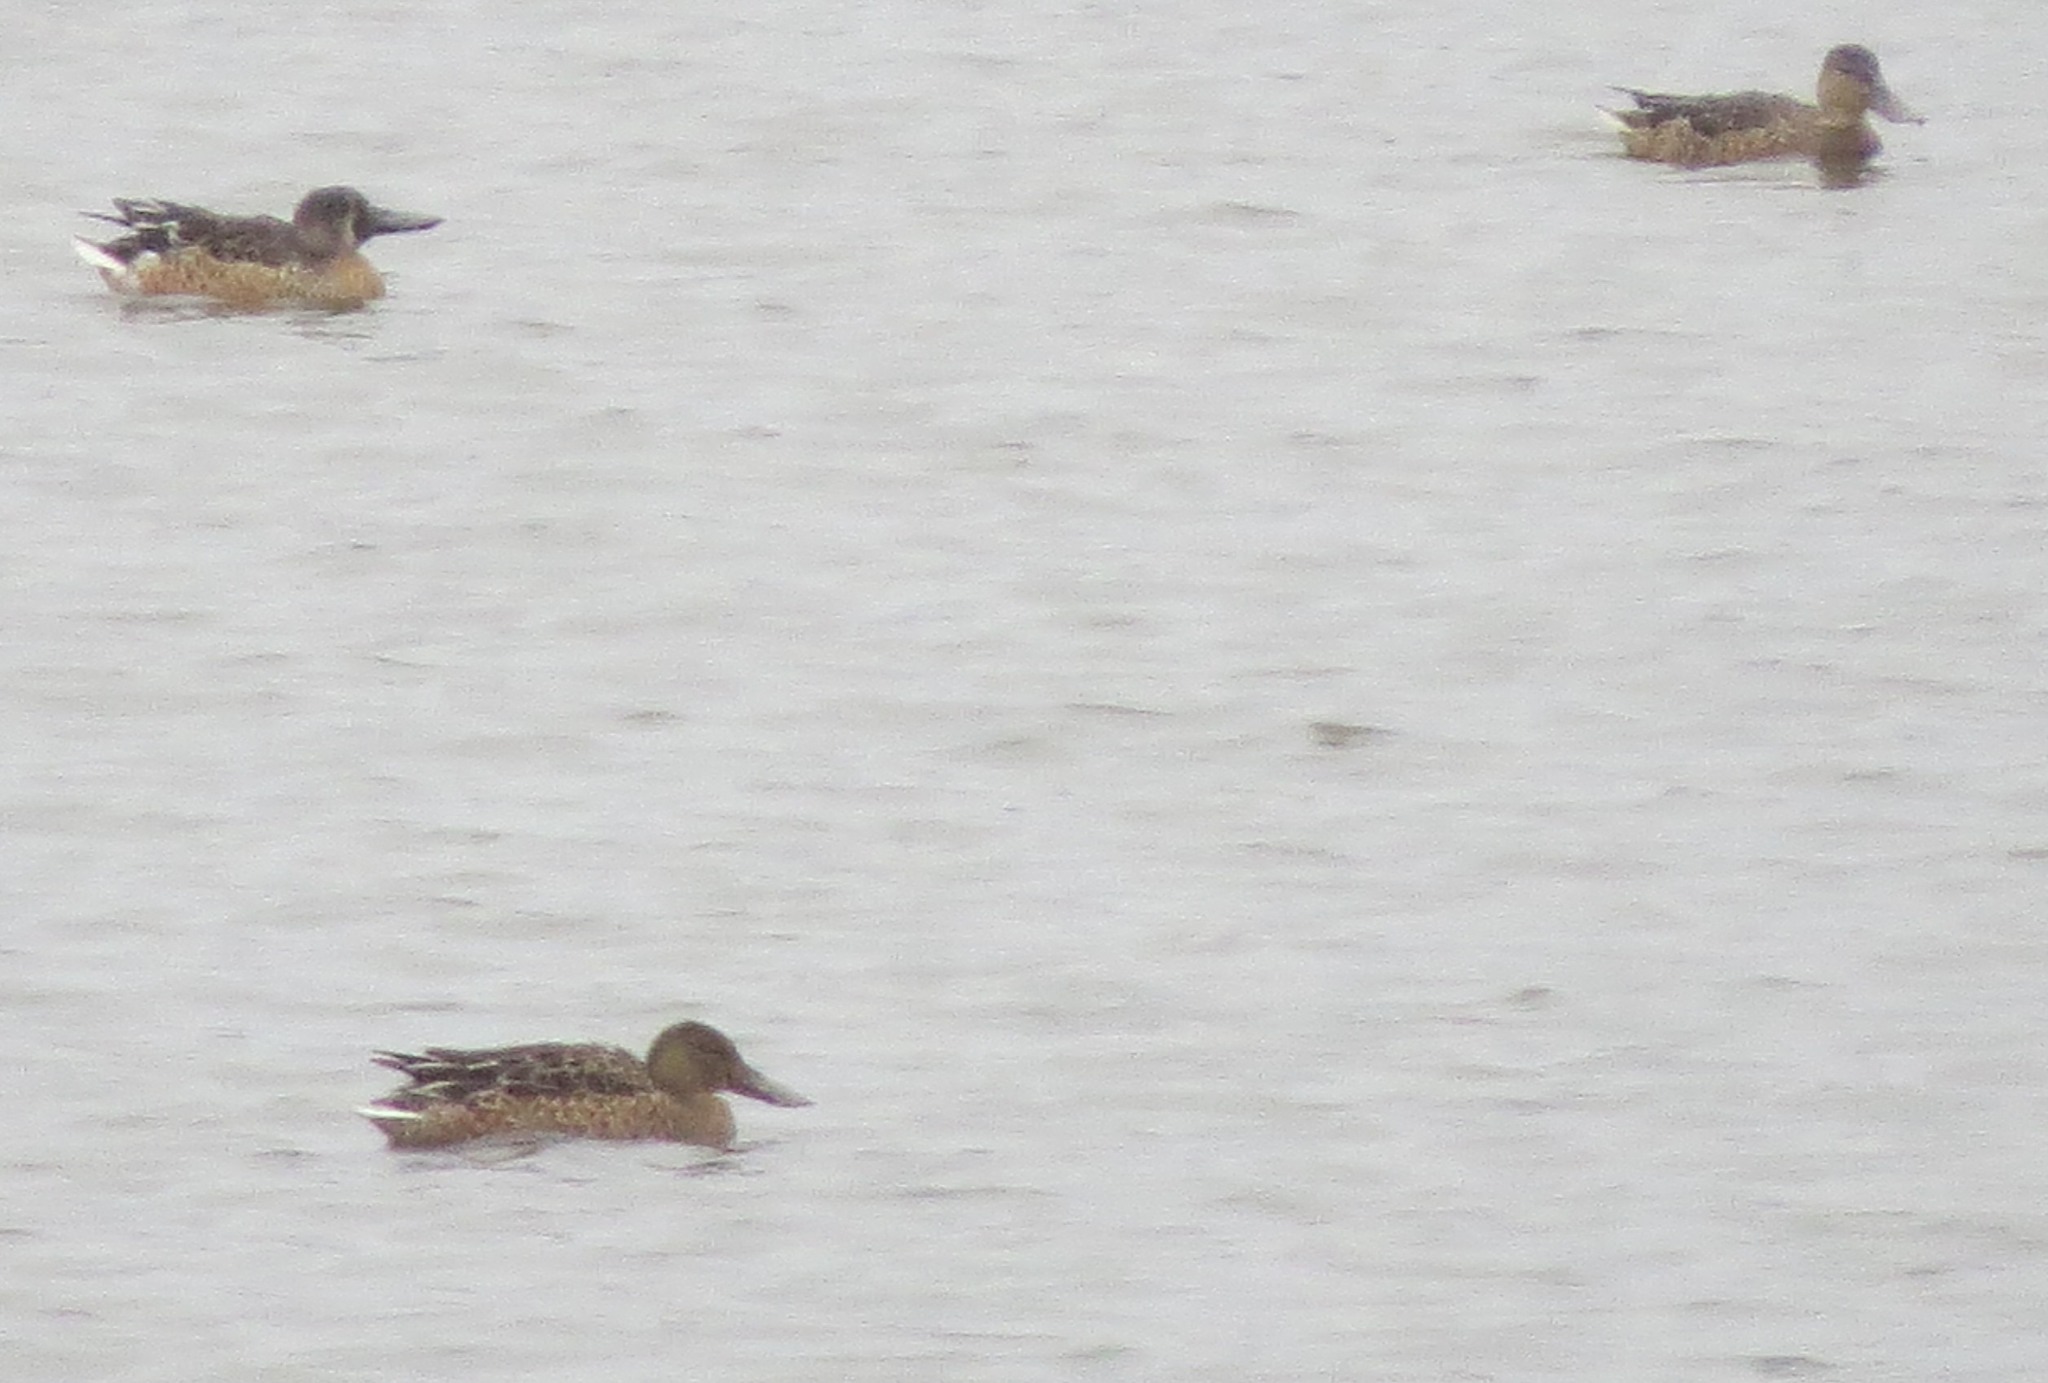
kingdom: Animalia
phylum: Chordata
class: Aves
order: Anseriformes
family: Anatidae
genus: Spatula
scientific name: Spatula clypeata
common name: Northern shoveler
